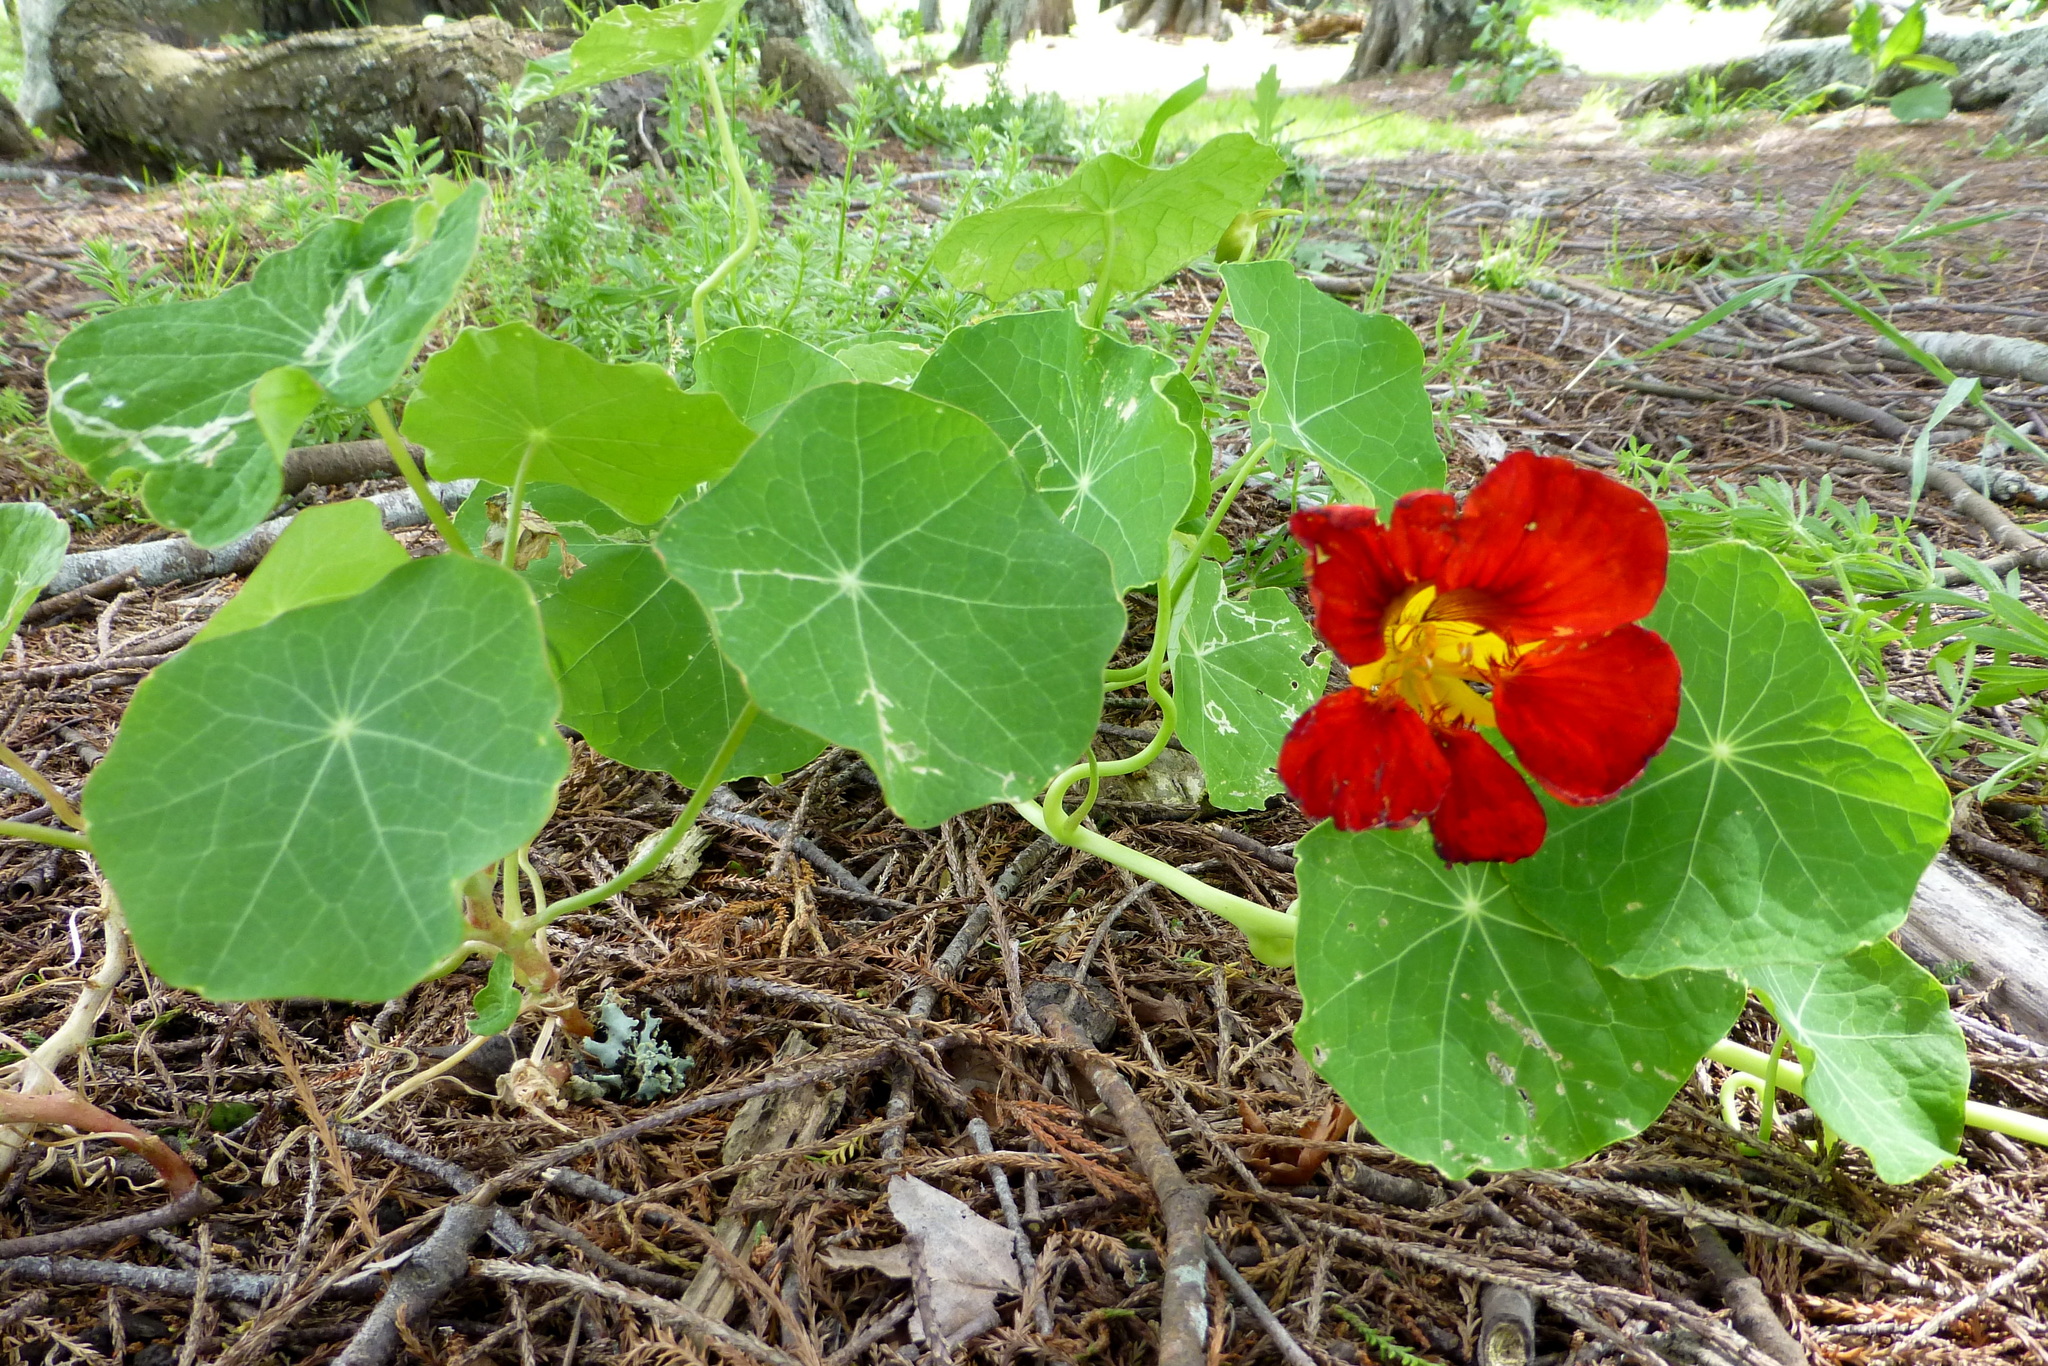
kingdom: Plantae
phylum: Tracheophyta
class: Magnoliopsida
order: Brassicales
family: Tropaeolaceae
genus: Tropaeolum
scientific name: Tropaeolum majus
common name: Nasturtium
